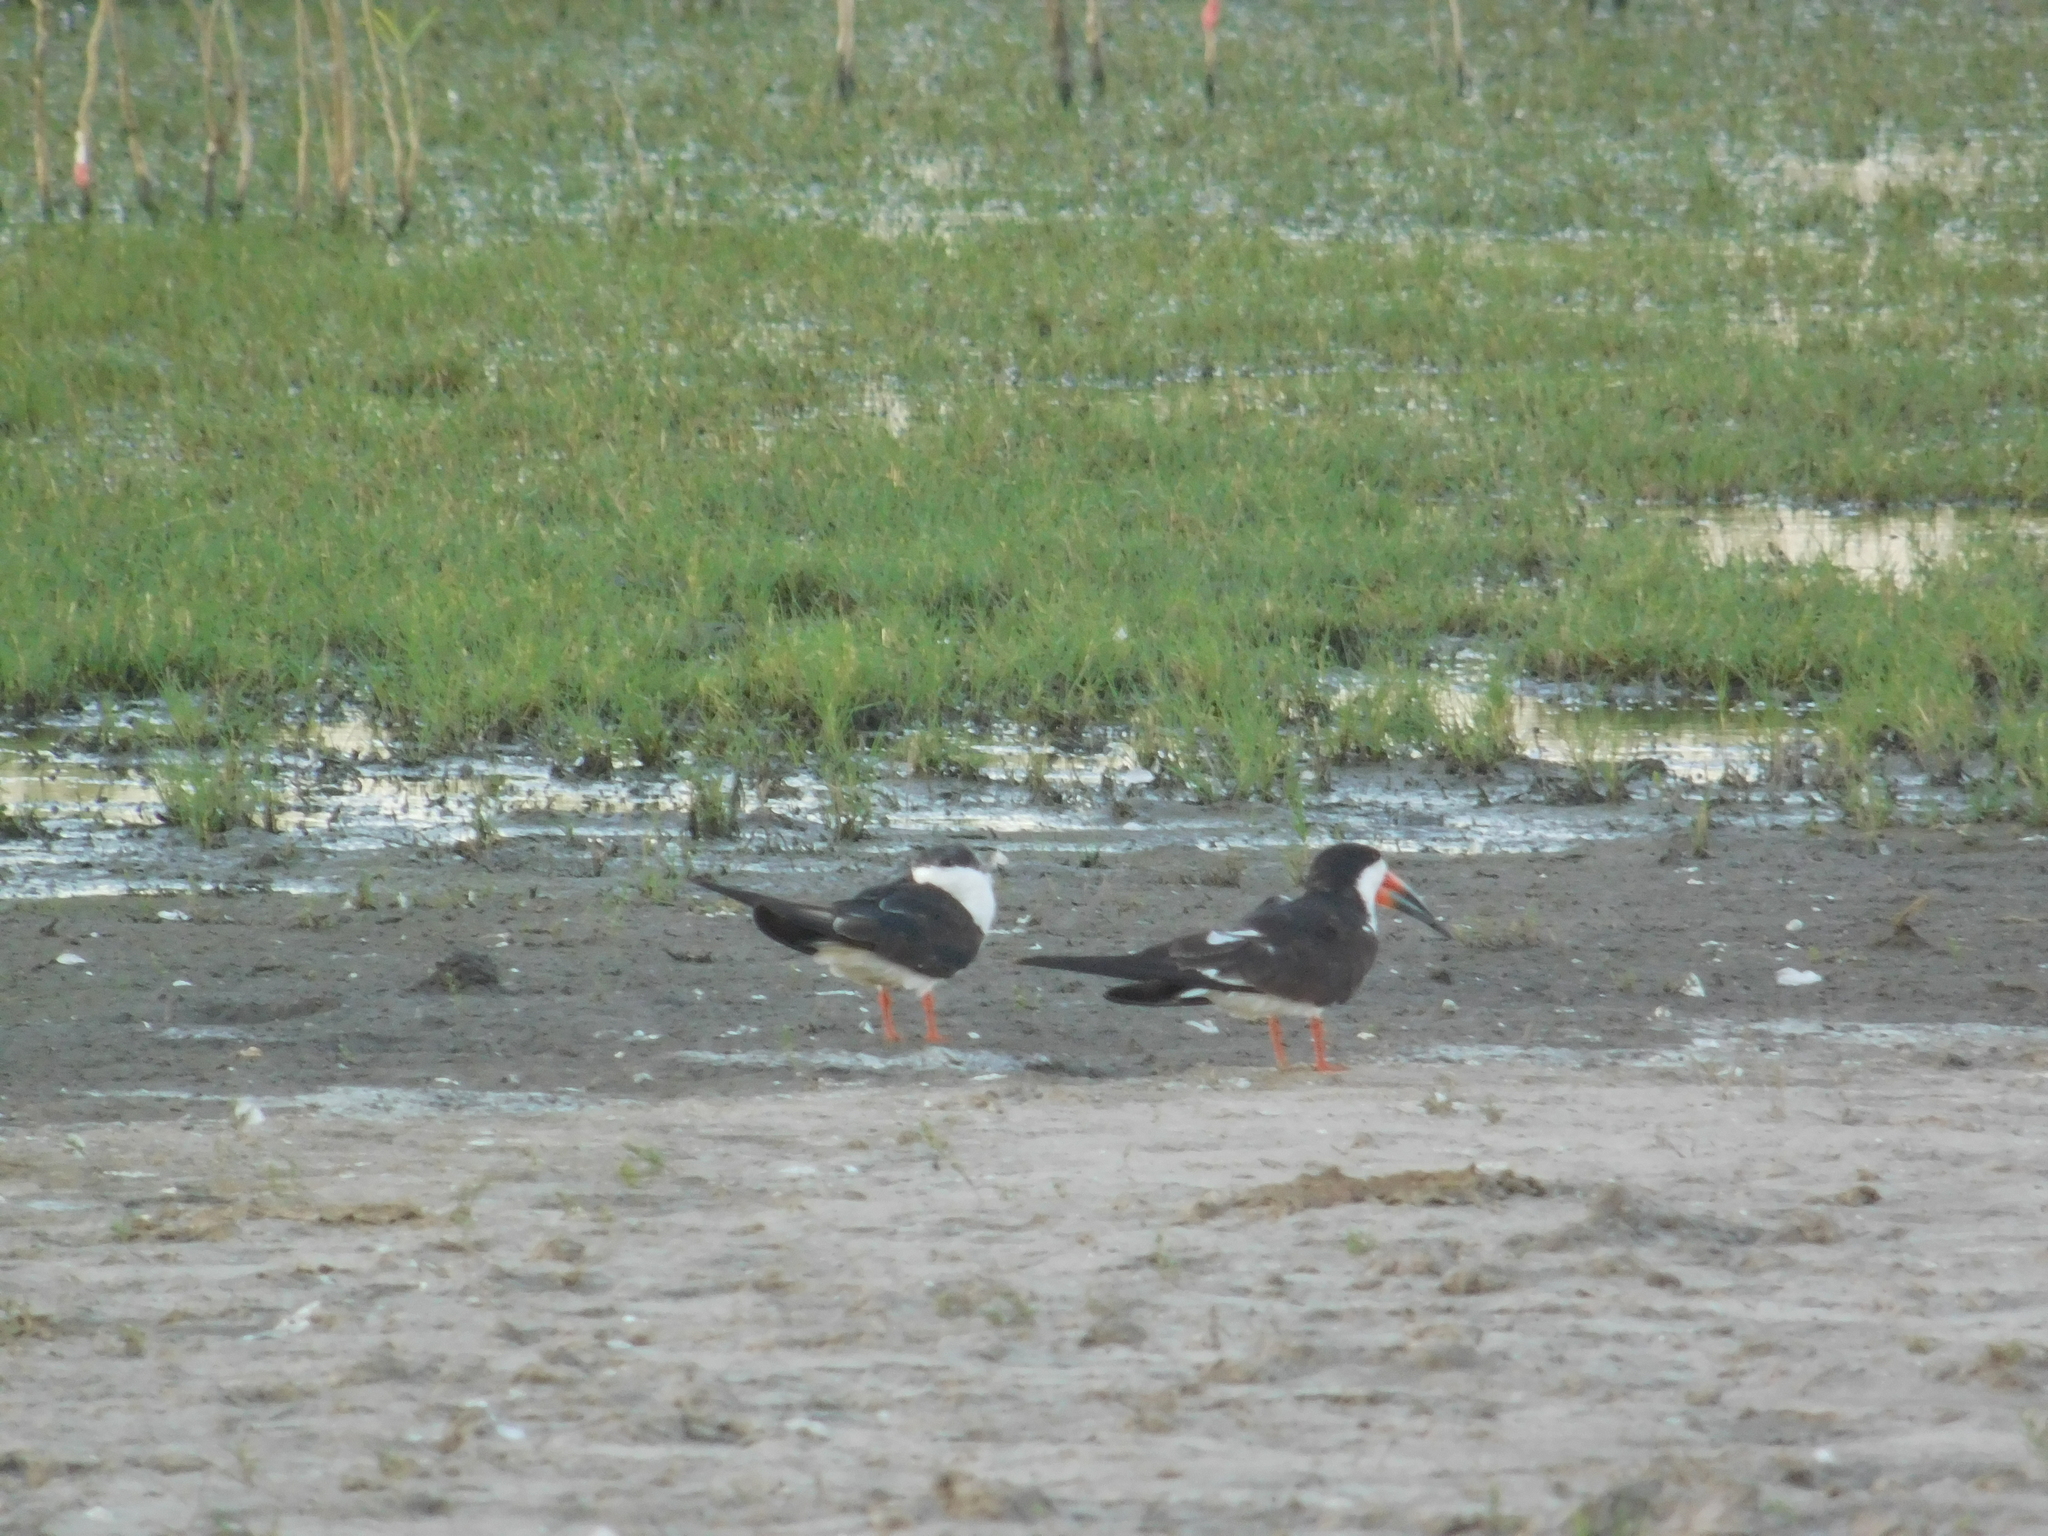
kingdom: Animalia
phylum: Chordata
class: Aves
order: Charadriiformes
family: Laridae
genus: Rynchops
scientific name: Rynchops niger
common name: Black skimmer
